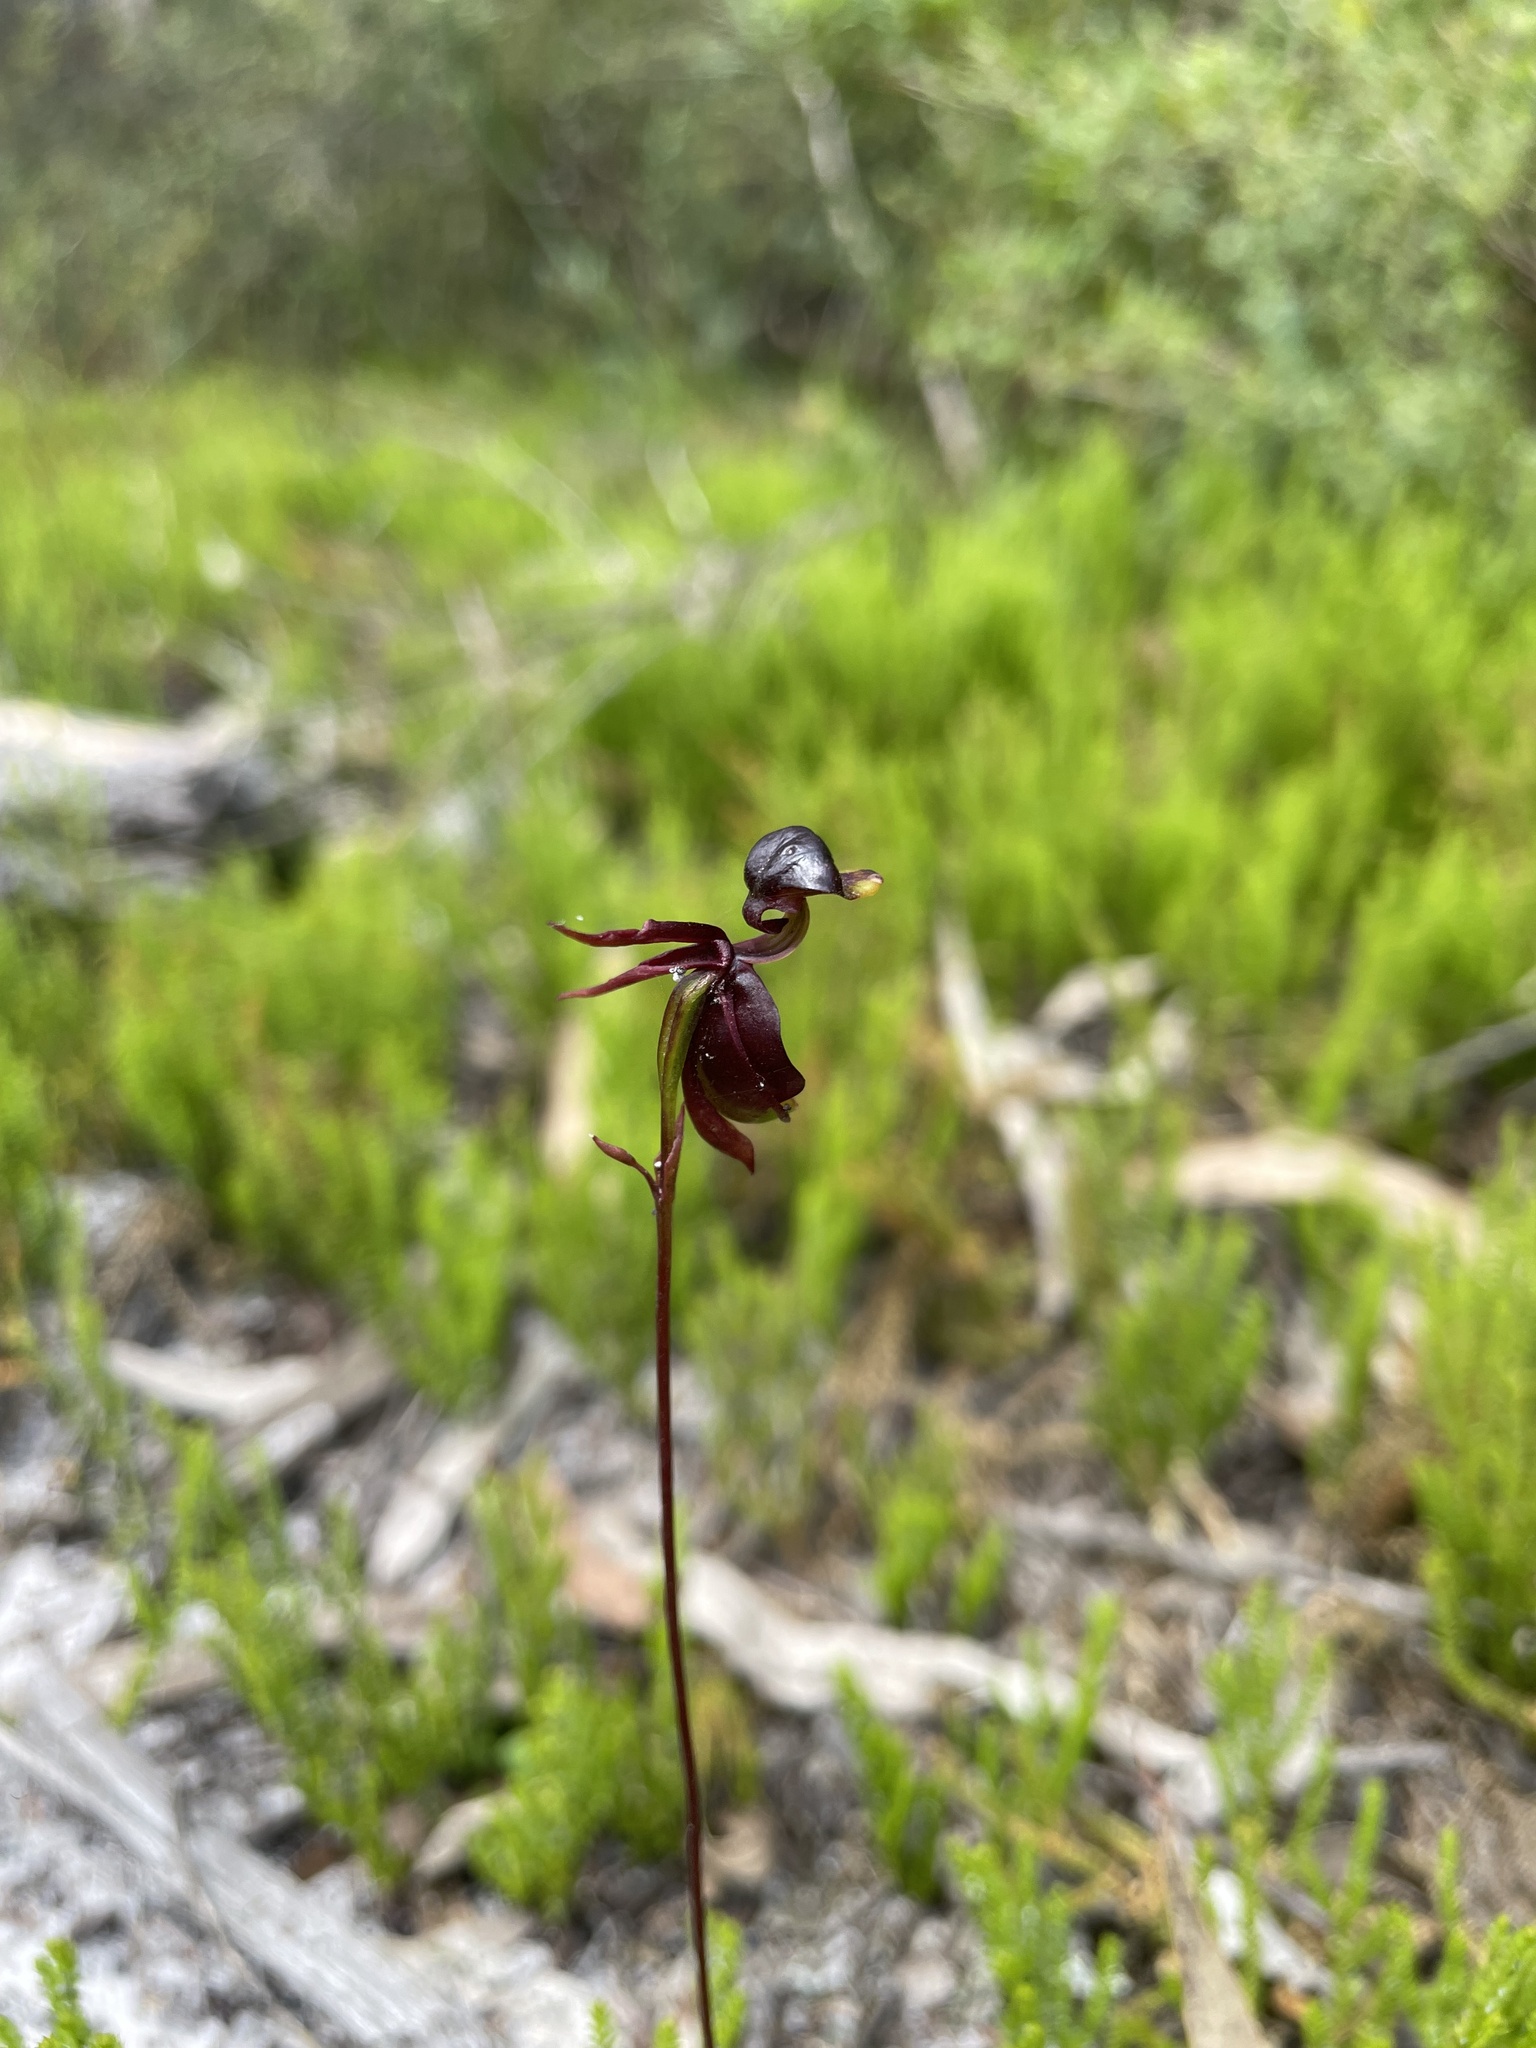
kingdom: Plantae
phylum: Tracheophyta
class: Liliopsida
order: Asparagales
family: Orchidaceae
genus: Caleana
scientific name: Caleana major
